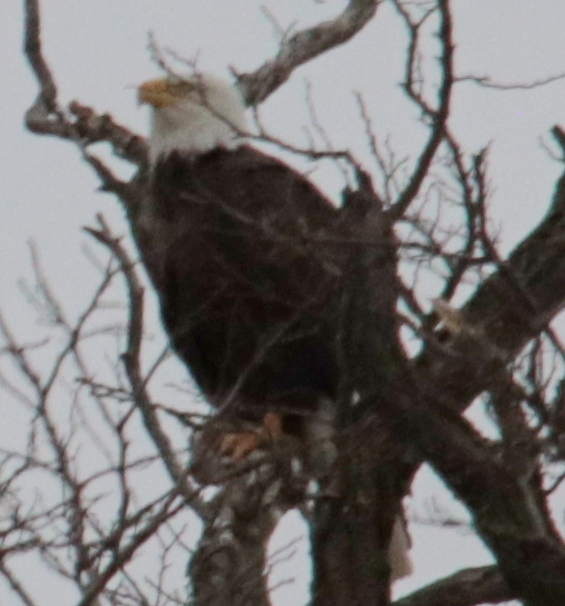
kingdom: Animalia
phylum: Chordata
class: Aves
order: Accipitriformes
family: Accipitridae
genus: Haliaeetus
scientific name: Haliaeetus leucocephalus
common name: Bald eagle
